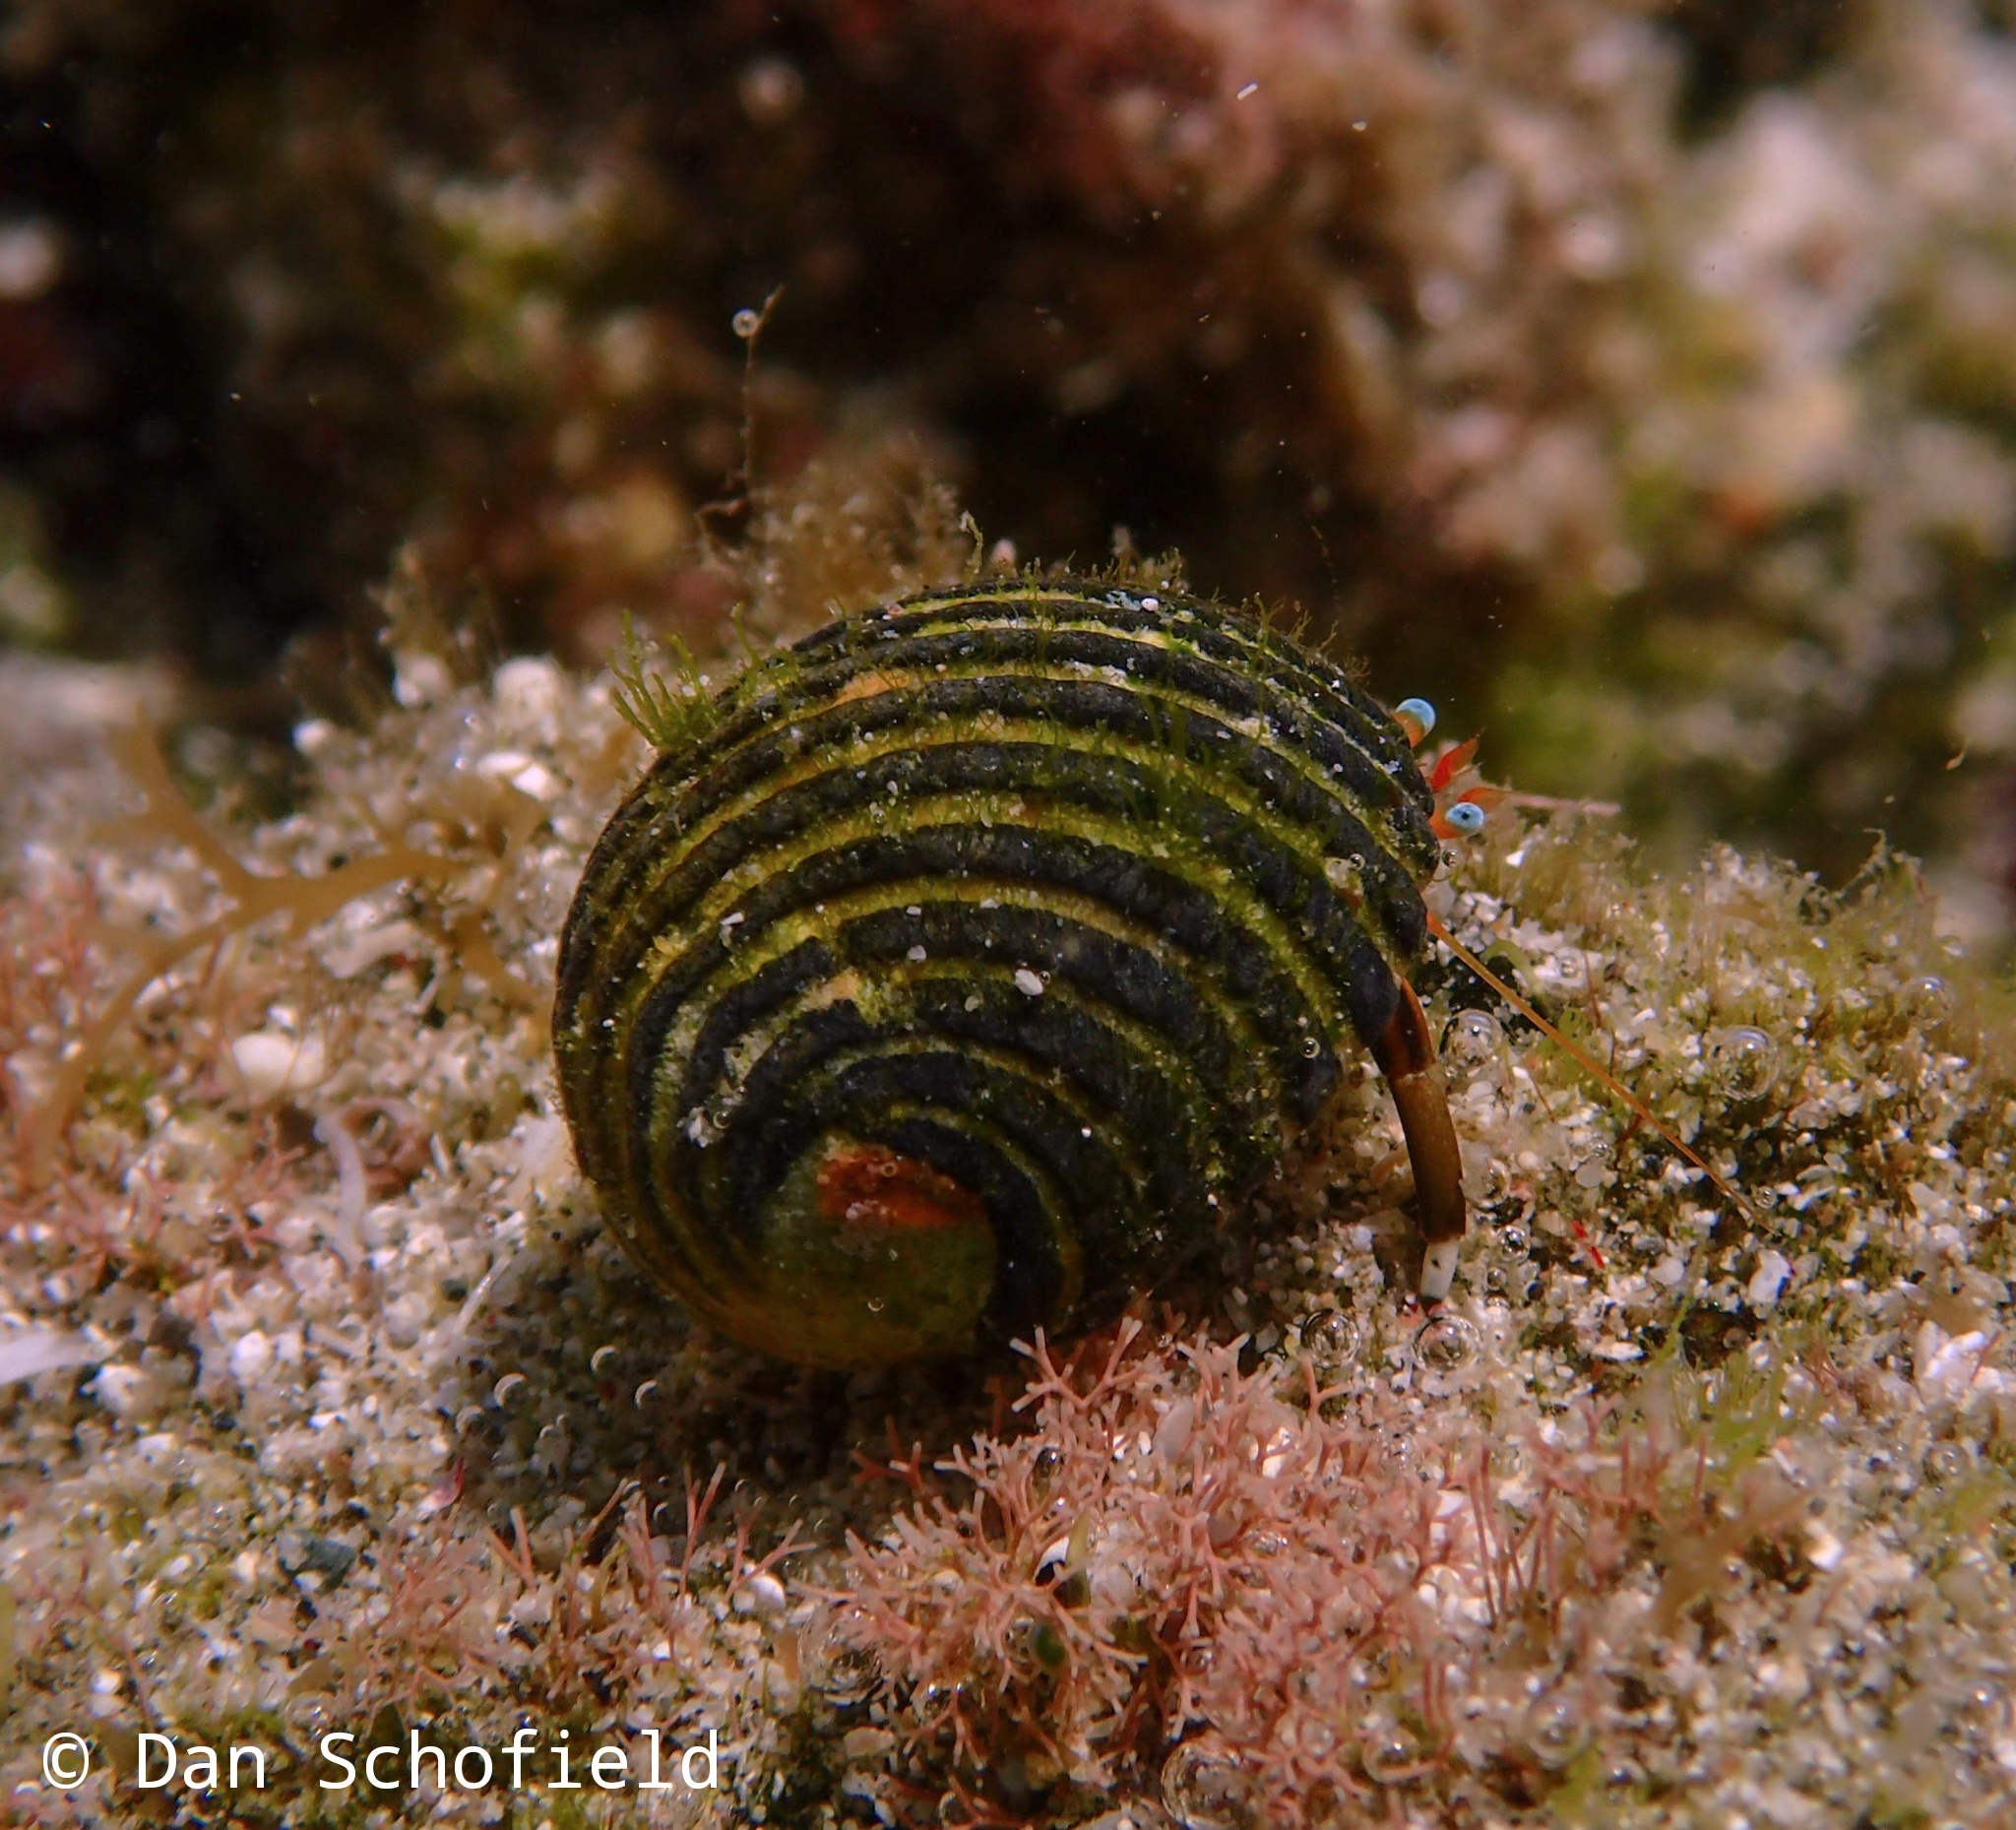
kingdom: Animalia
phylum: Arthropoda
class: Malacostraca
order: Decapoda
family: Diogenidae
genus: Calcinus
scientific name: Calcinus laevimanus
